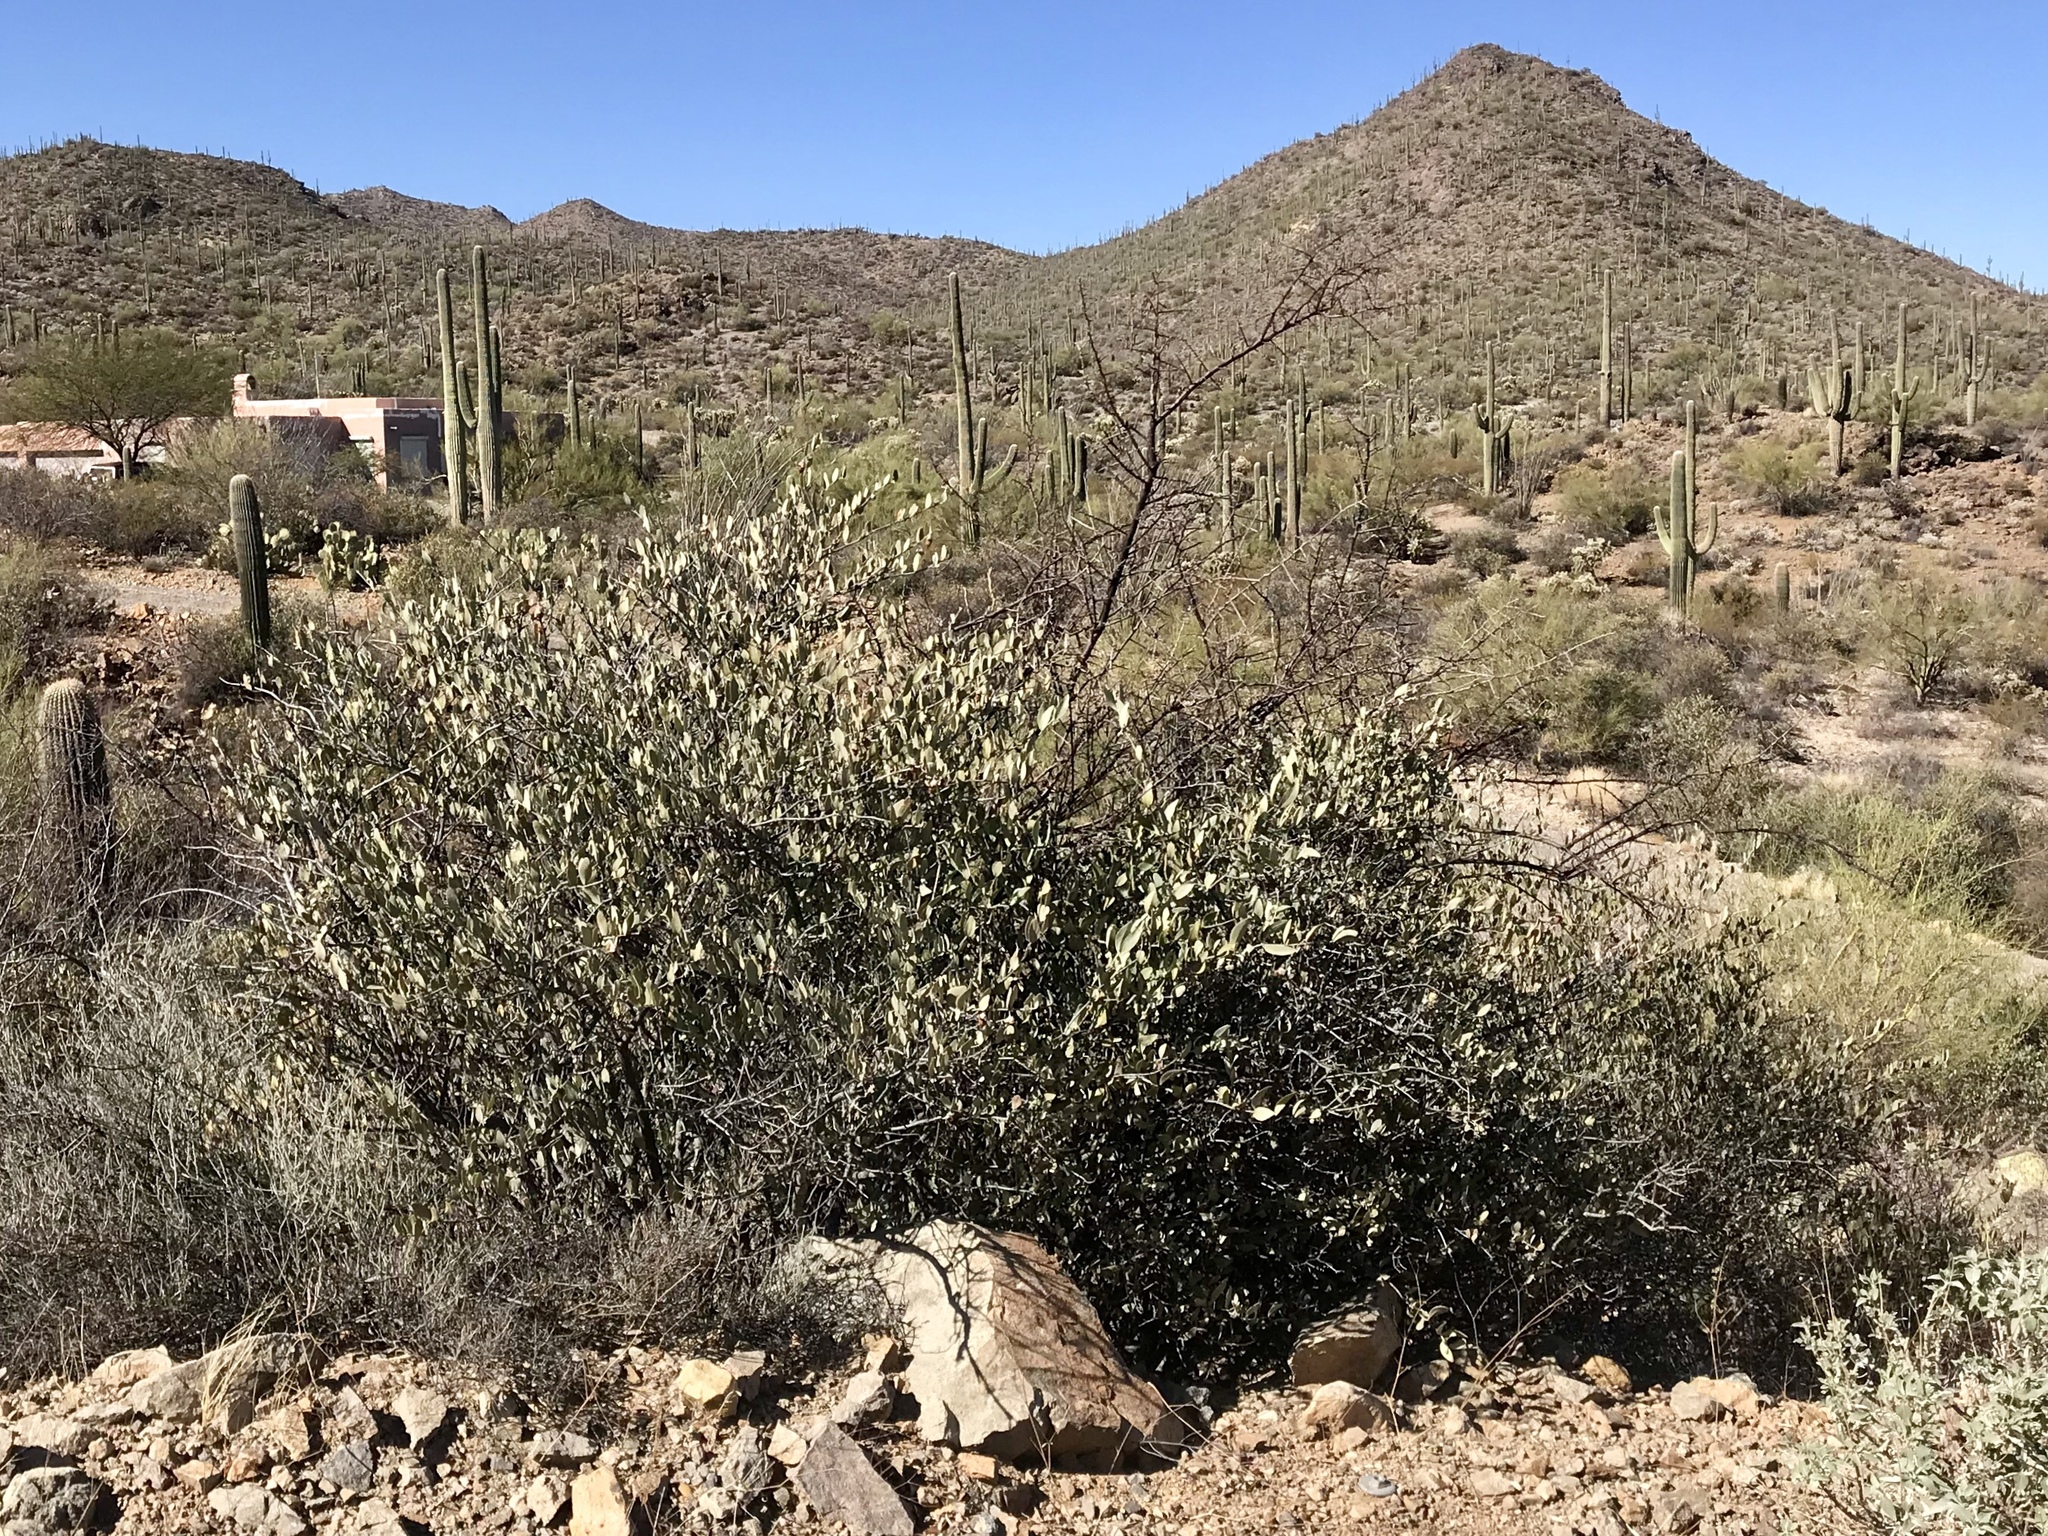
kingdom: Plantae
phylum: Tracheophyta
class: Magnoliopsida
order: Caryophyllales
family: Simmondsiaceae
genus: Simmondsia
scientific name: Simmondsia chinensis
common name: Jojoba
